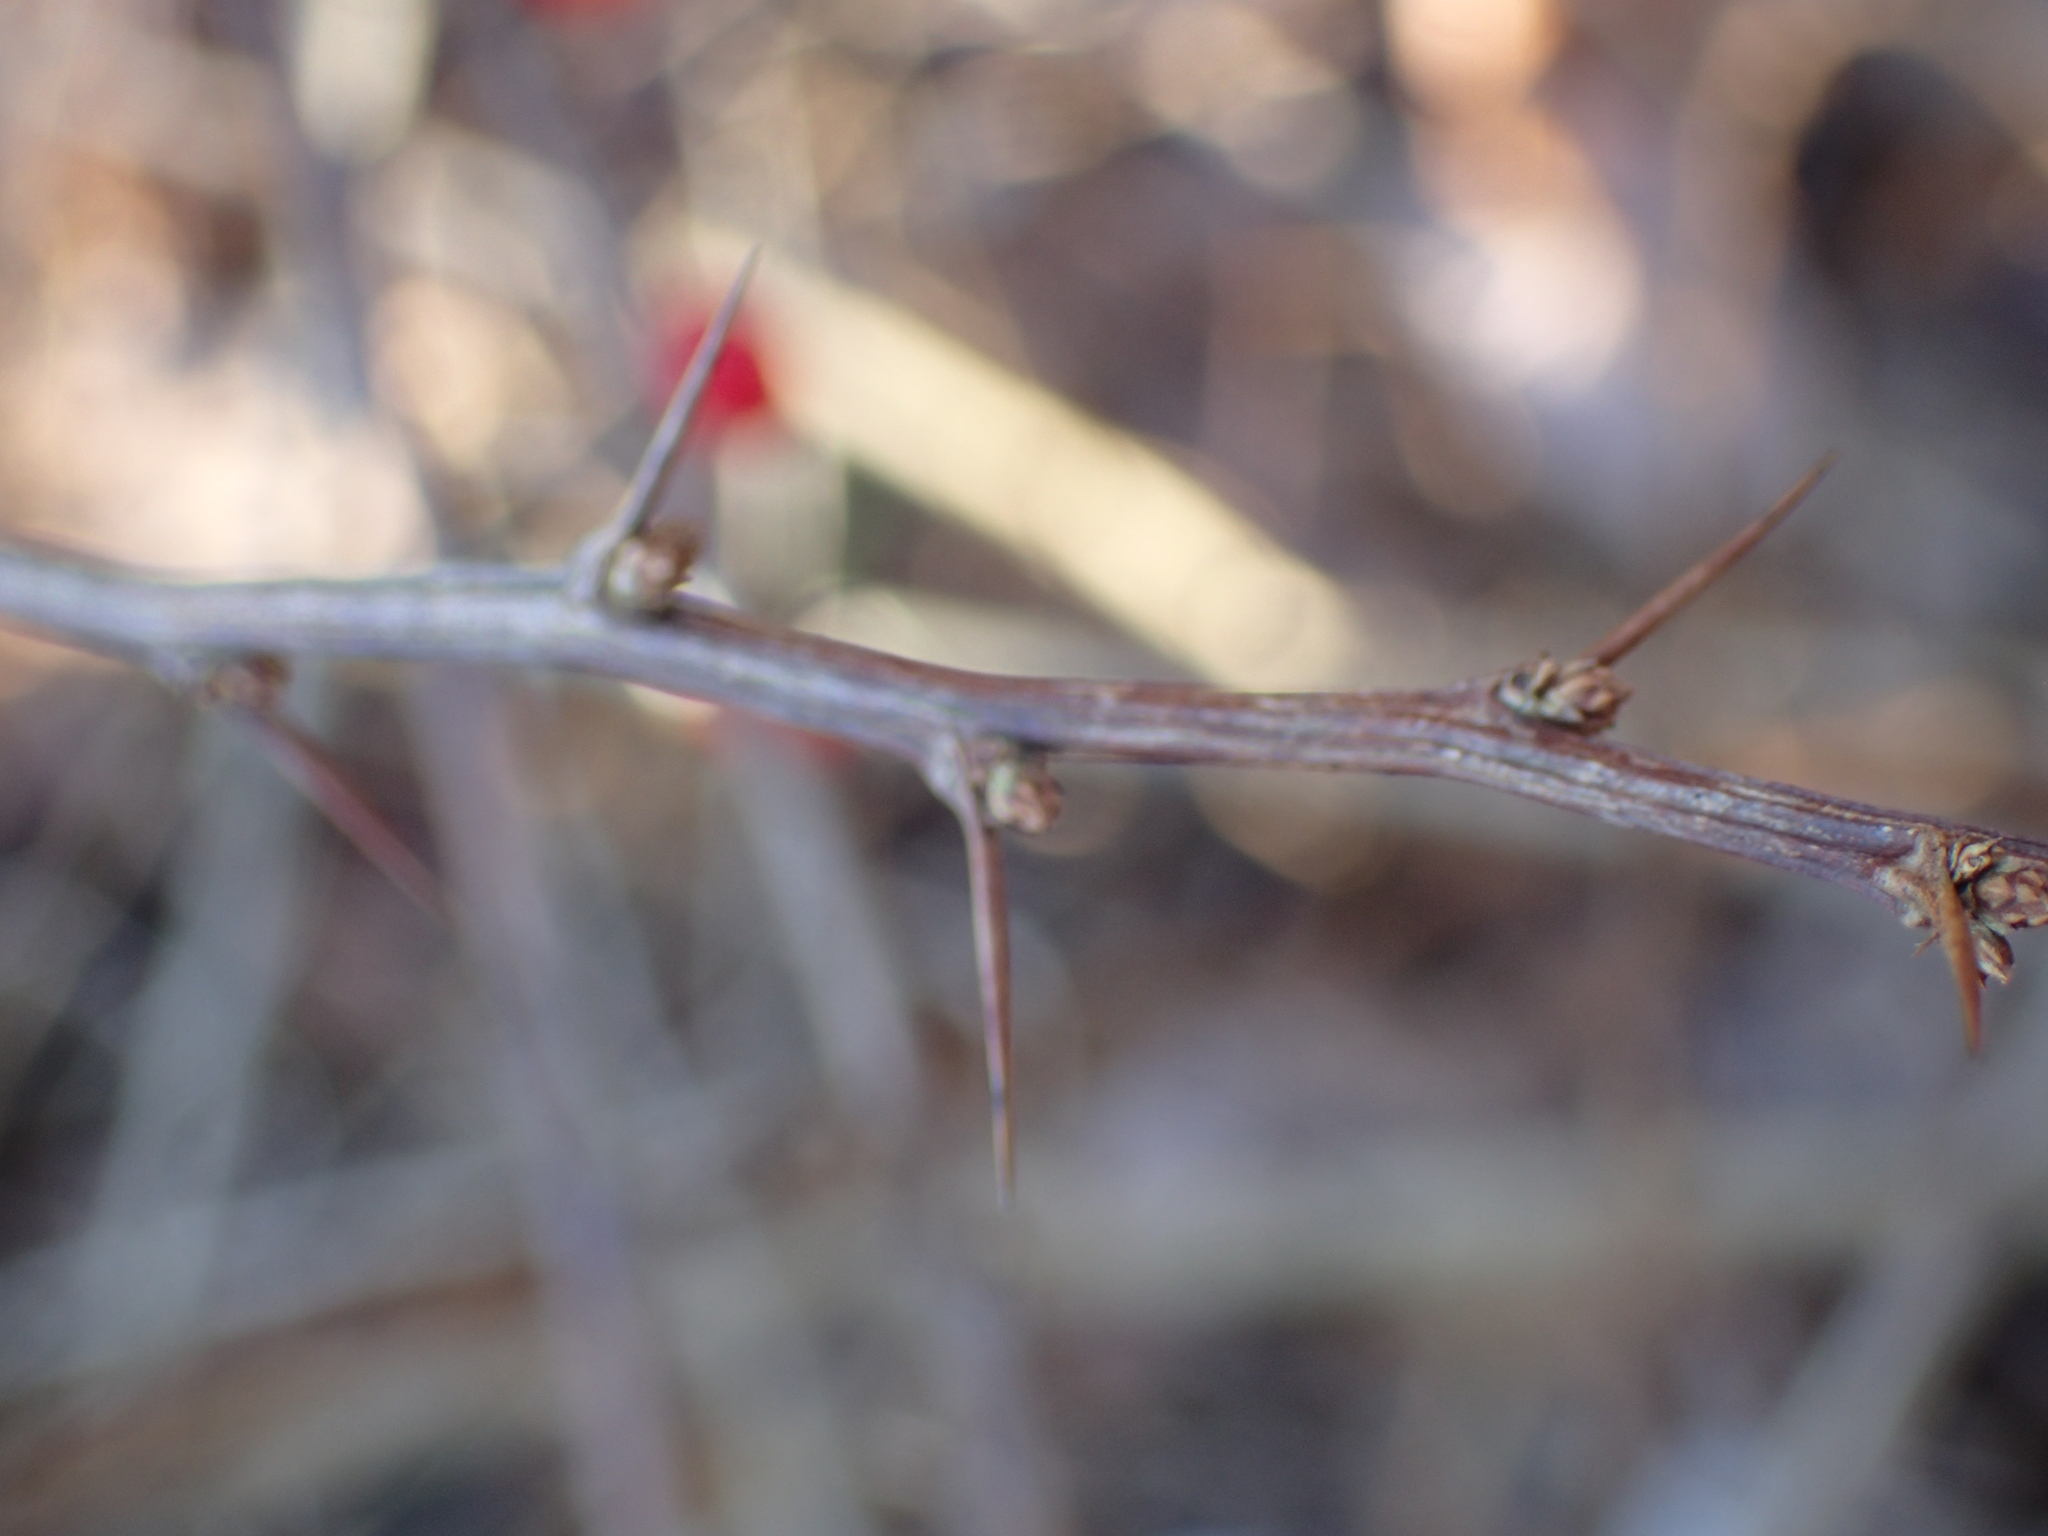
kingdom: Plantae
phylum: Tracheophyta
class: Magnoliopsida
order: Ranunculales
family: Berberidaceae
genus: Berberis
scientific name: Berberis thunbergii
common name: Japanese barberry
